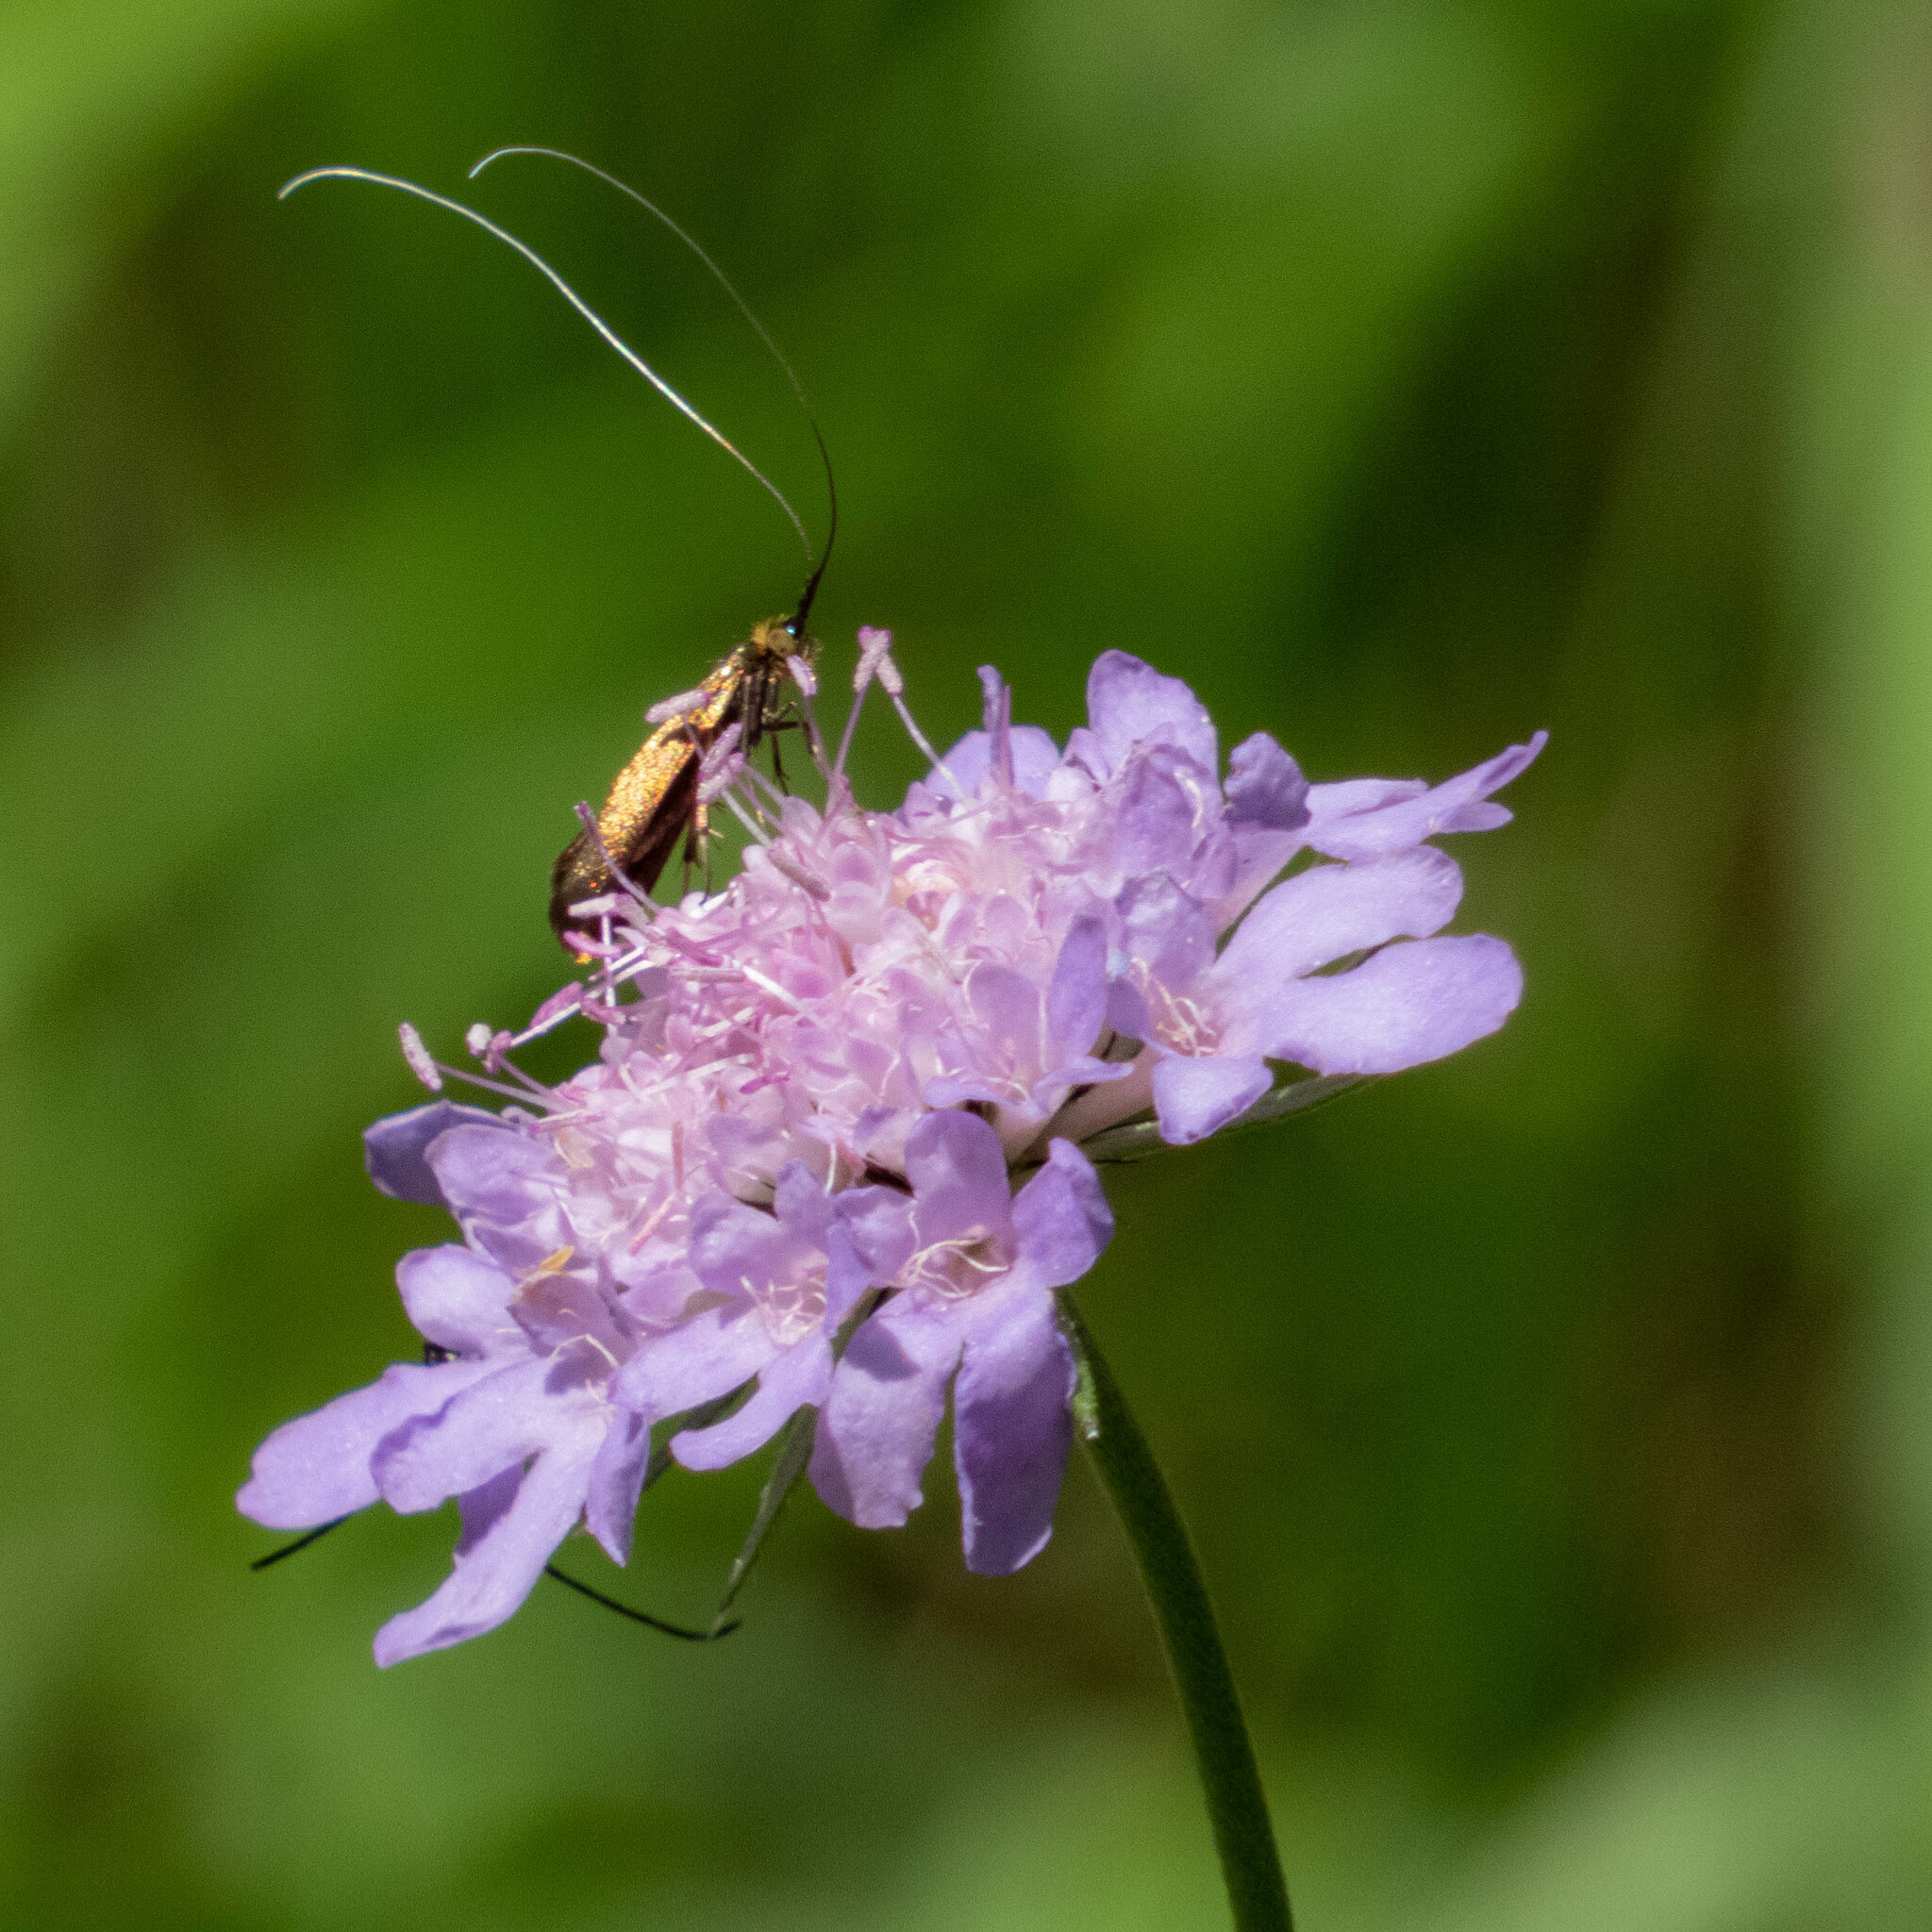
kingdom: Animalia
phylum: Arthropoda
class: Insecta
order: Lepidoptera
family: Adelidae
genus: Nemophora
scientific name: Nemophora metallica
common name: Brassy long-horn
